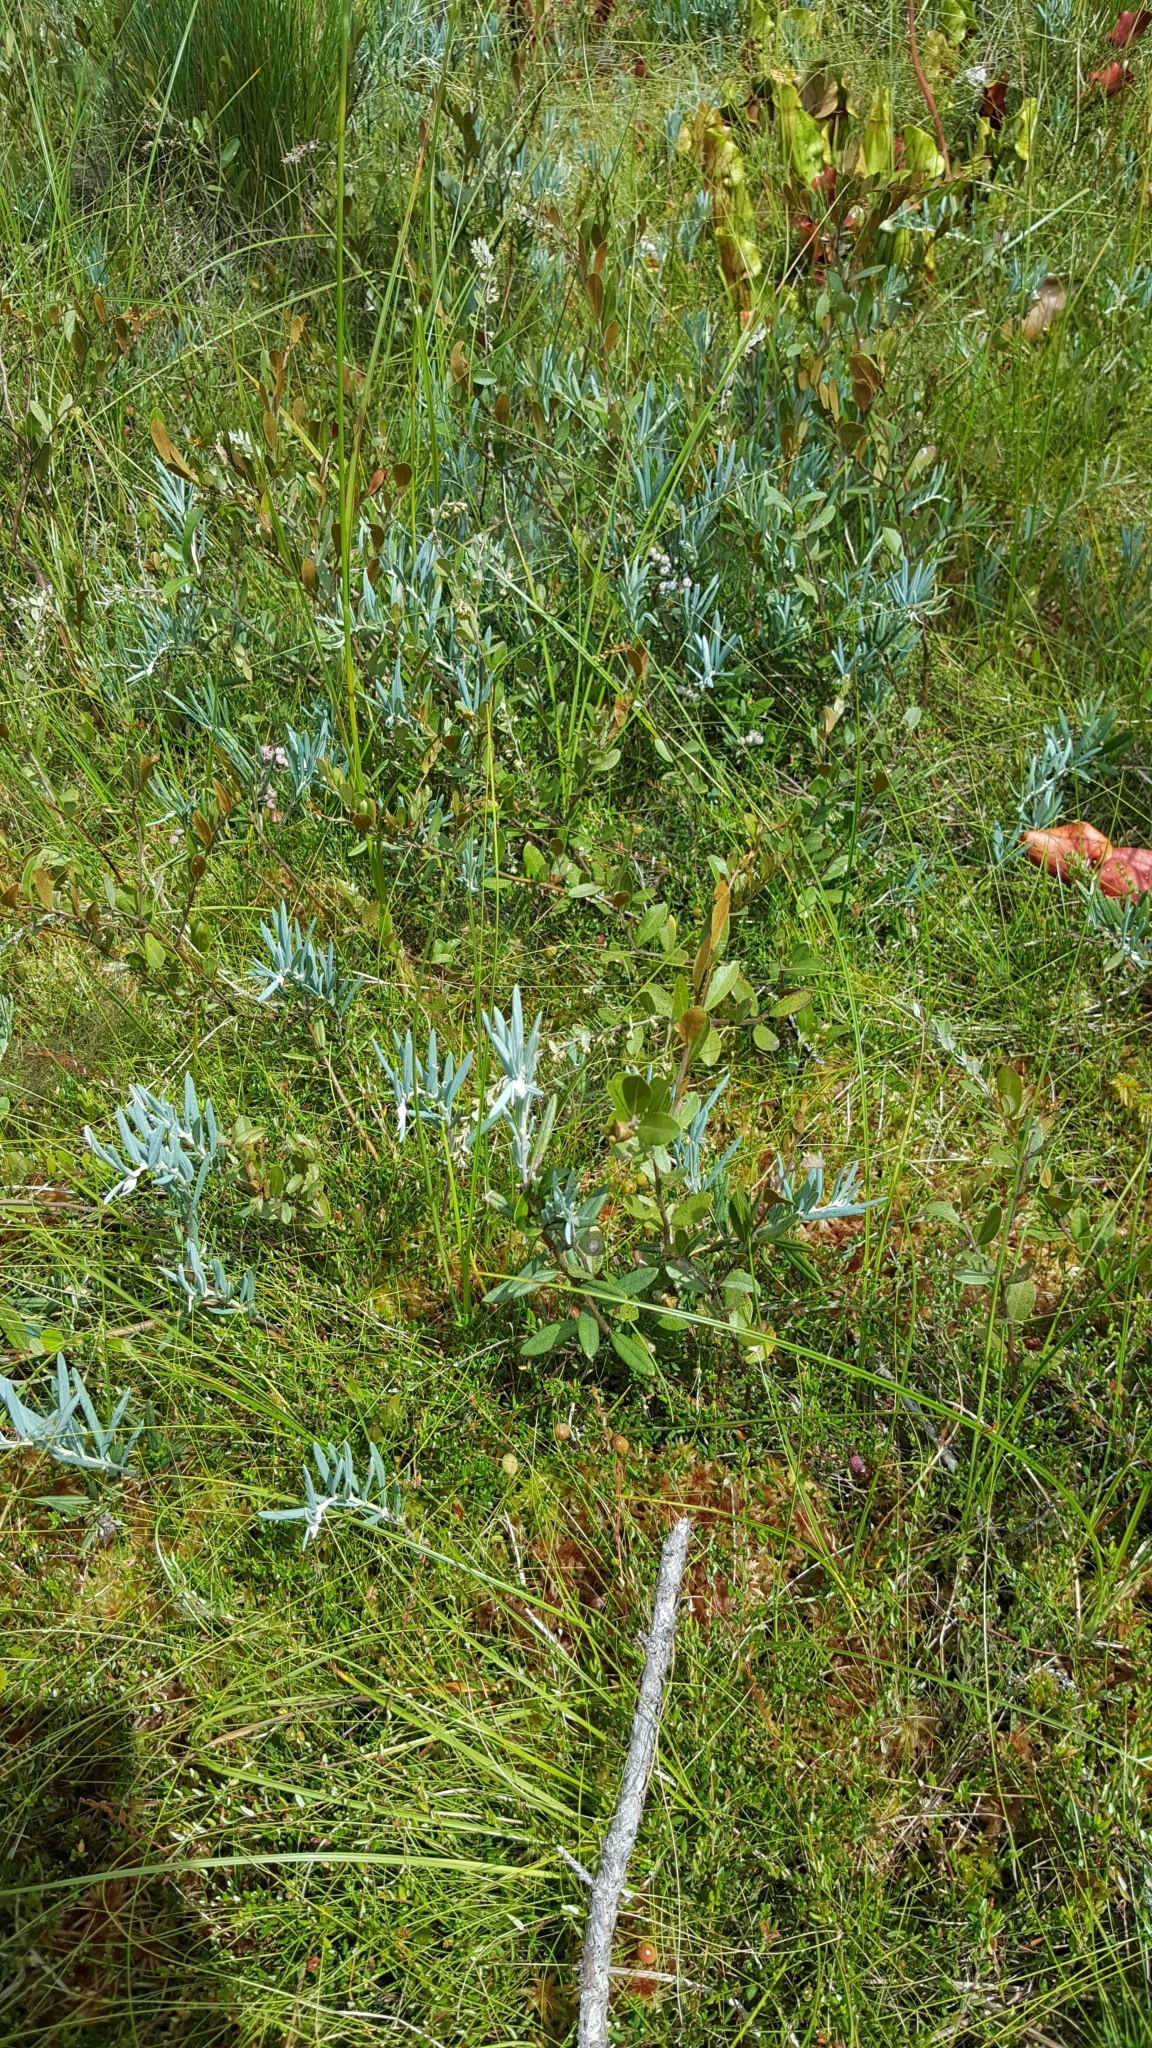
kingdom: Plantae
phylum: Tracheophyta
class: Magnoliopsida
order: Ericales
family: Ericaceae
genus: Andromeda
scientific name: Andromeda polifolia
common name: Bog-rosemary
